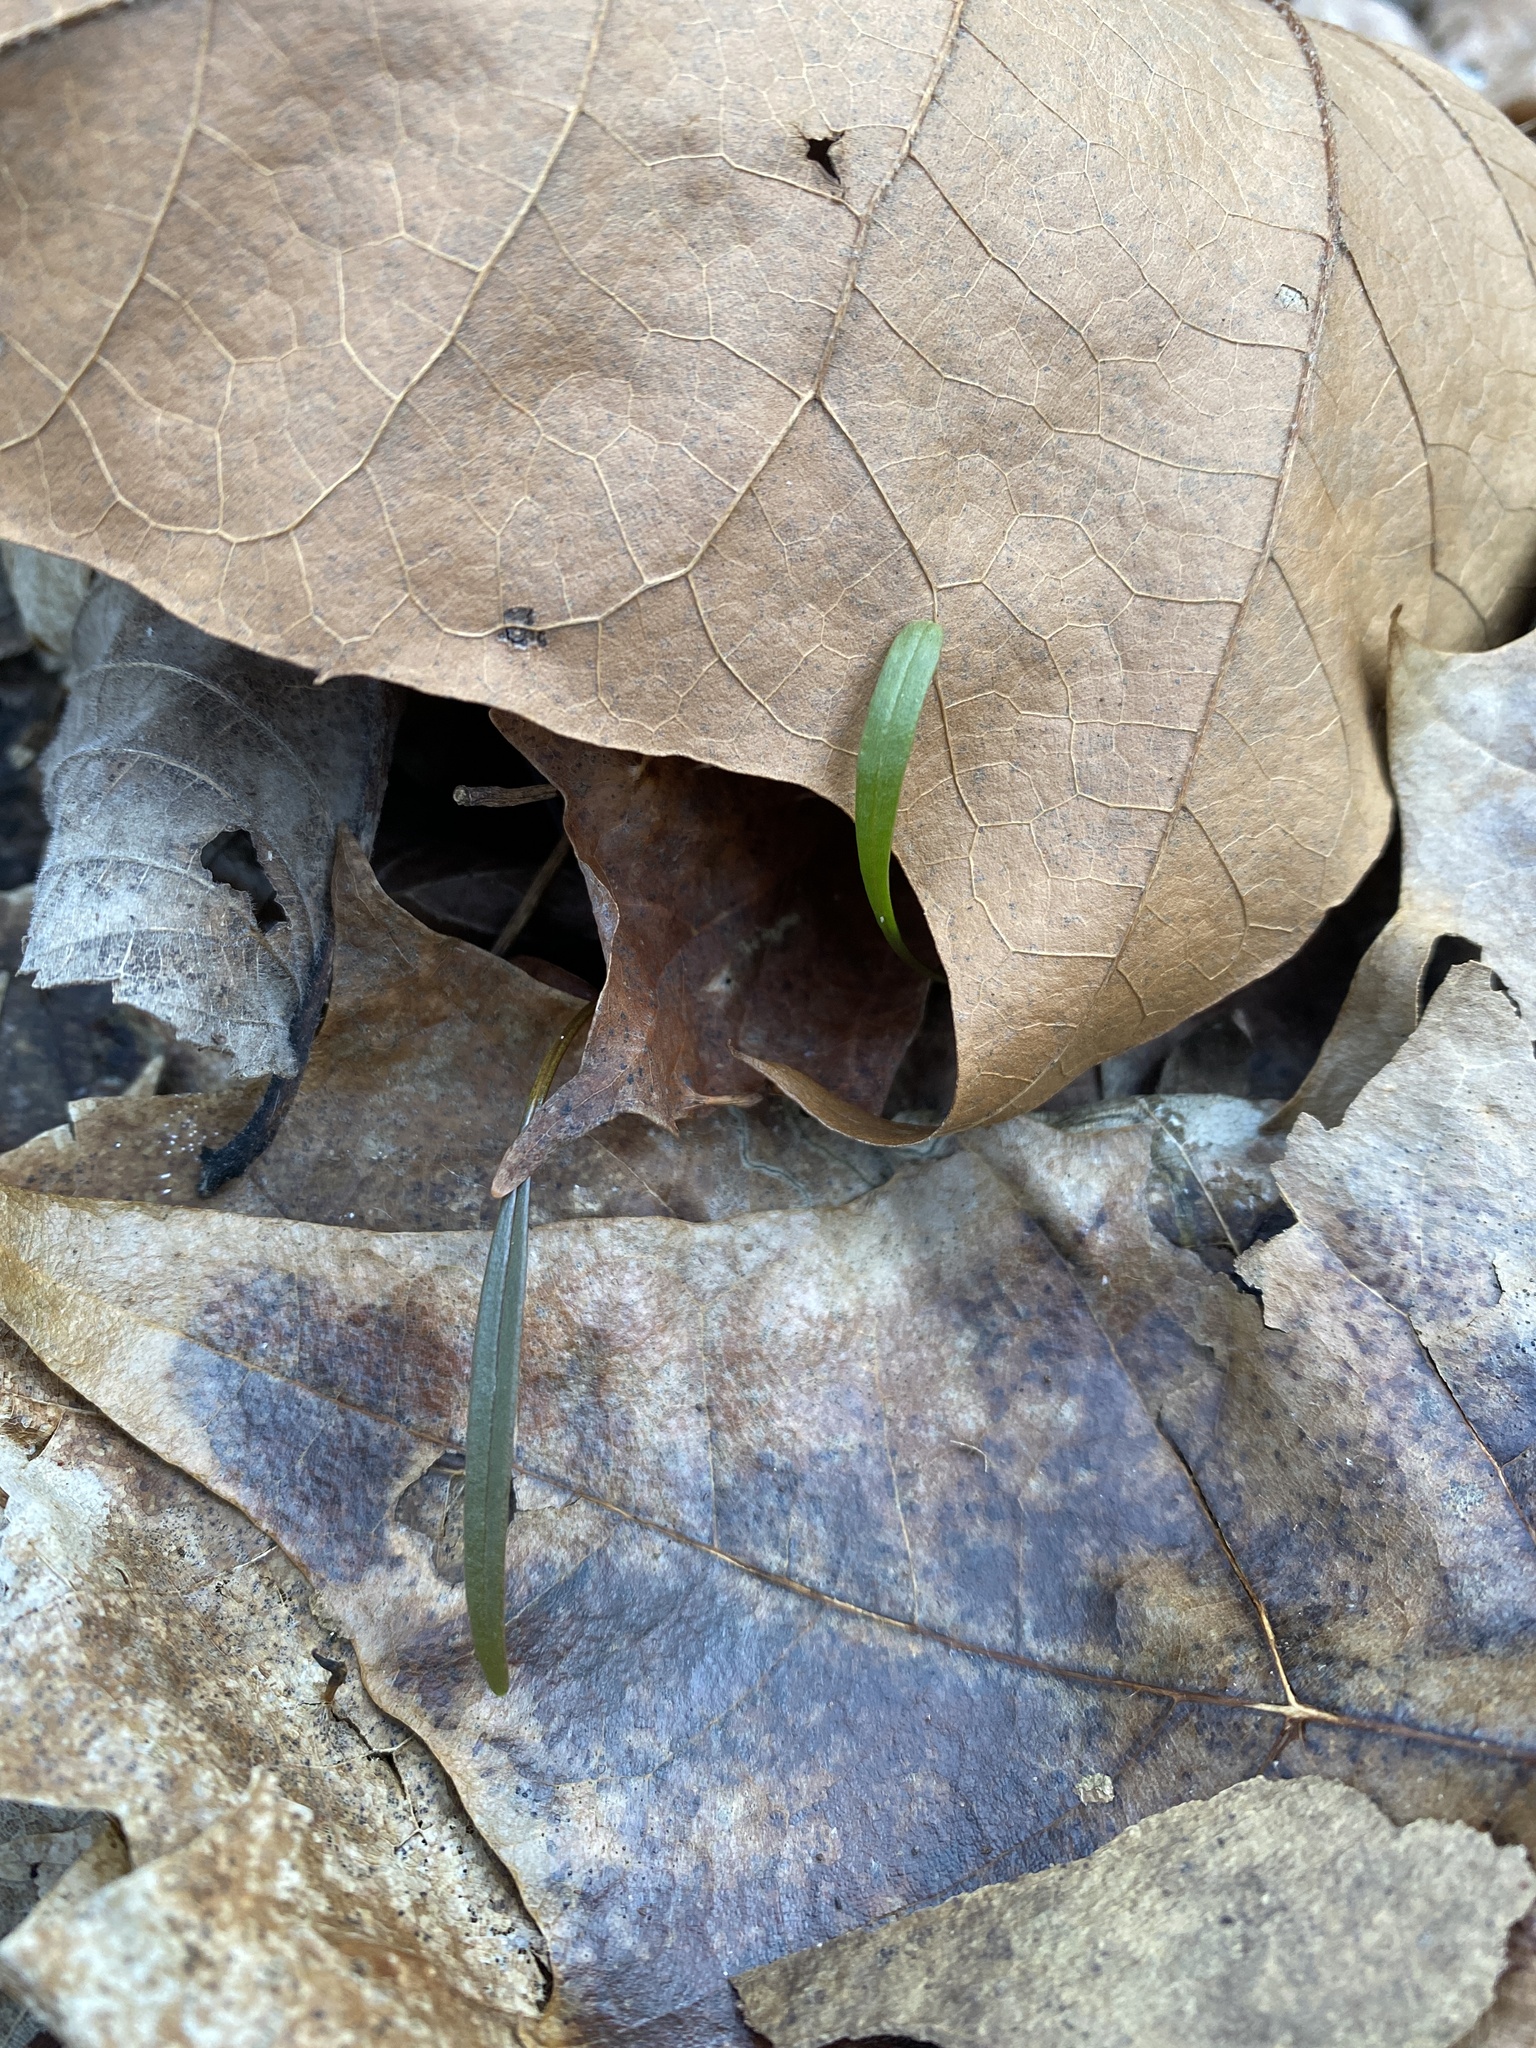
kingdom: Plantae
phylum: Tracheophyta
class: Magnoliopsida
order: Caryophyllales
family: Montiaceae
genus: Claytonia
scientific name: Claytonia virginica
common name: Virginia springbeauty
